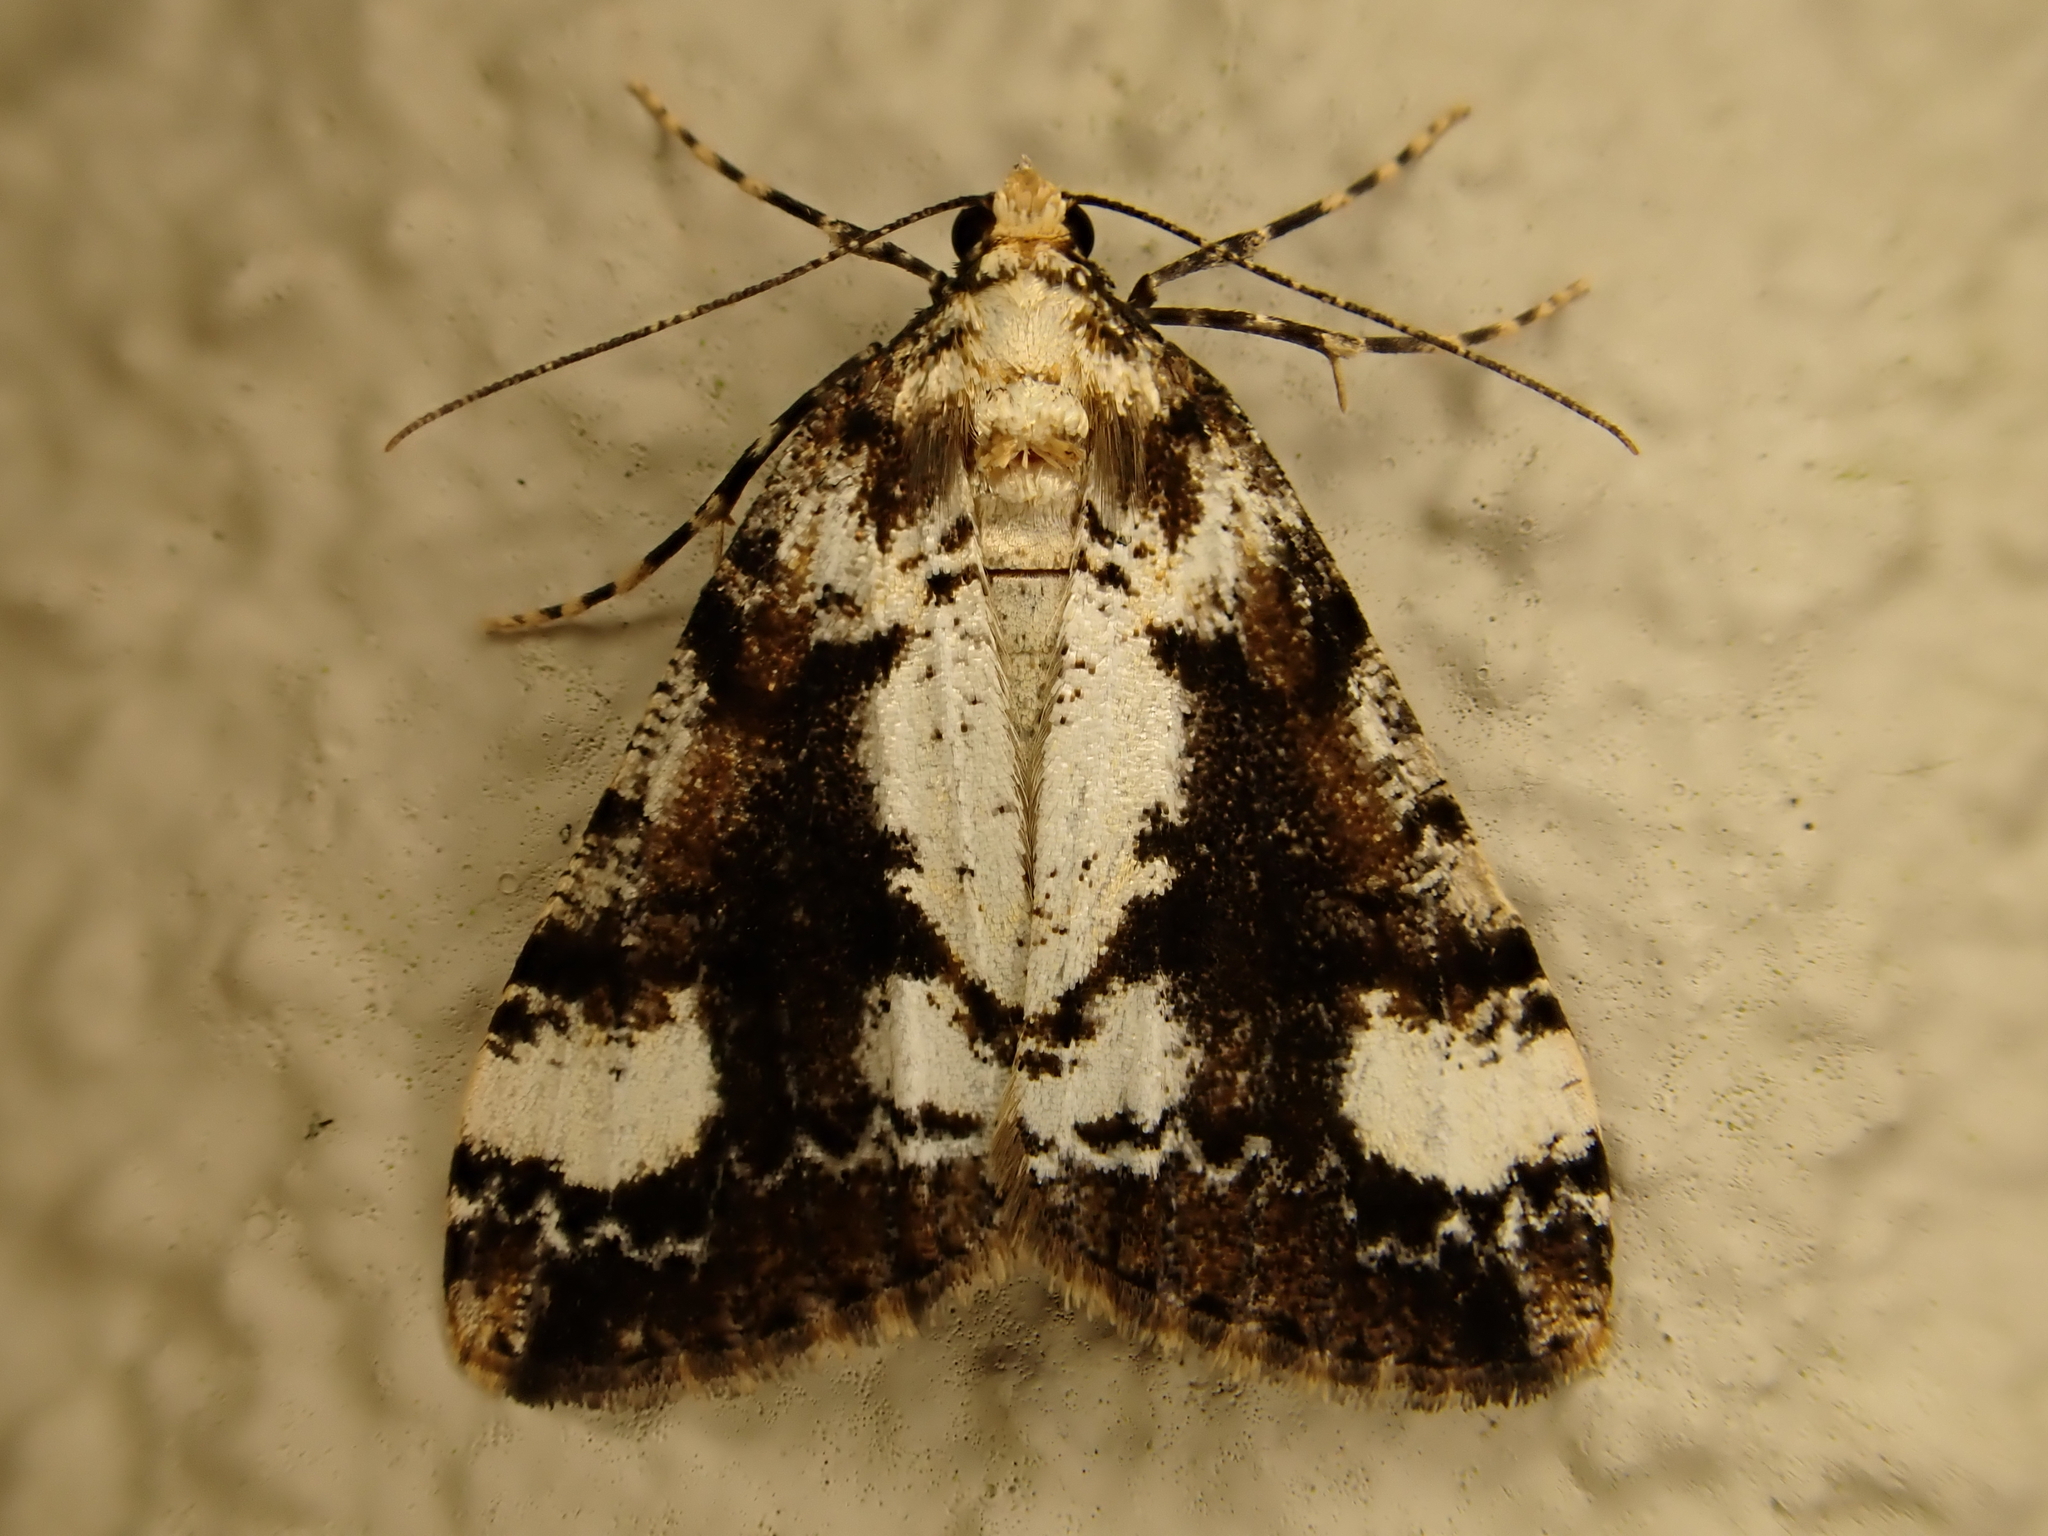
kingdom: Animalia
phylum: Arthropoda
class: Insecta
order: Lepidoptera
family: Geometridae
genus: Pseudocoremia
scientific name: Pseudocoremia leucelaea
